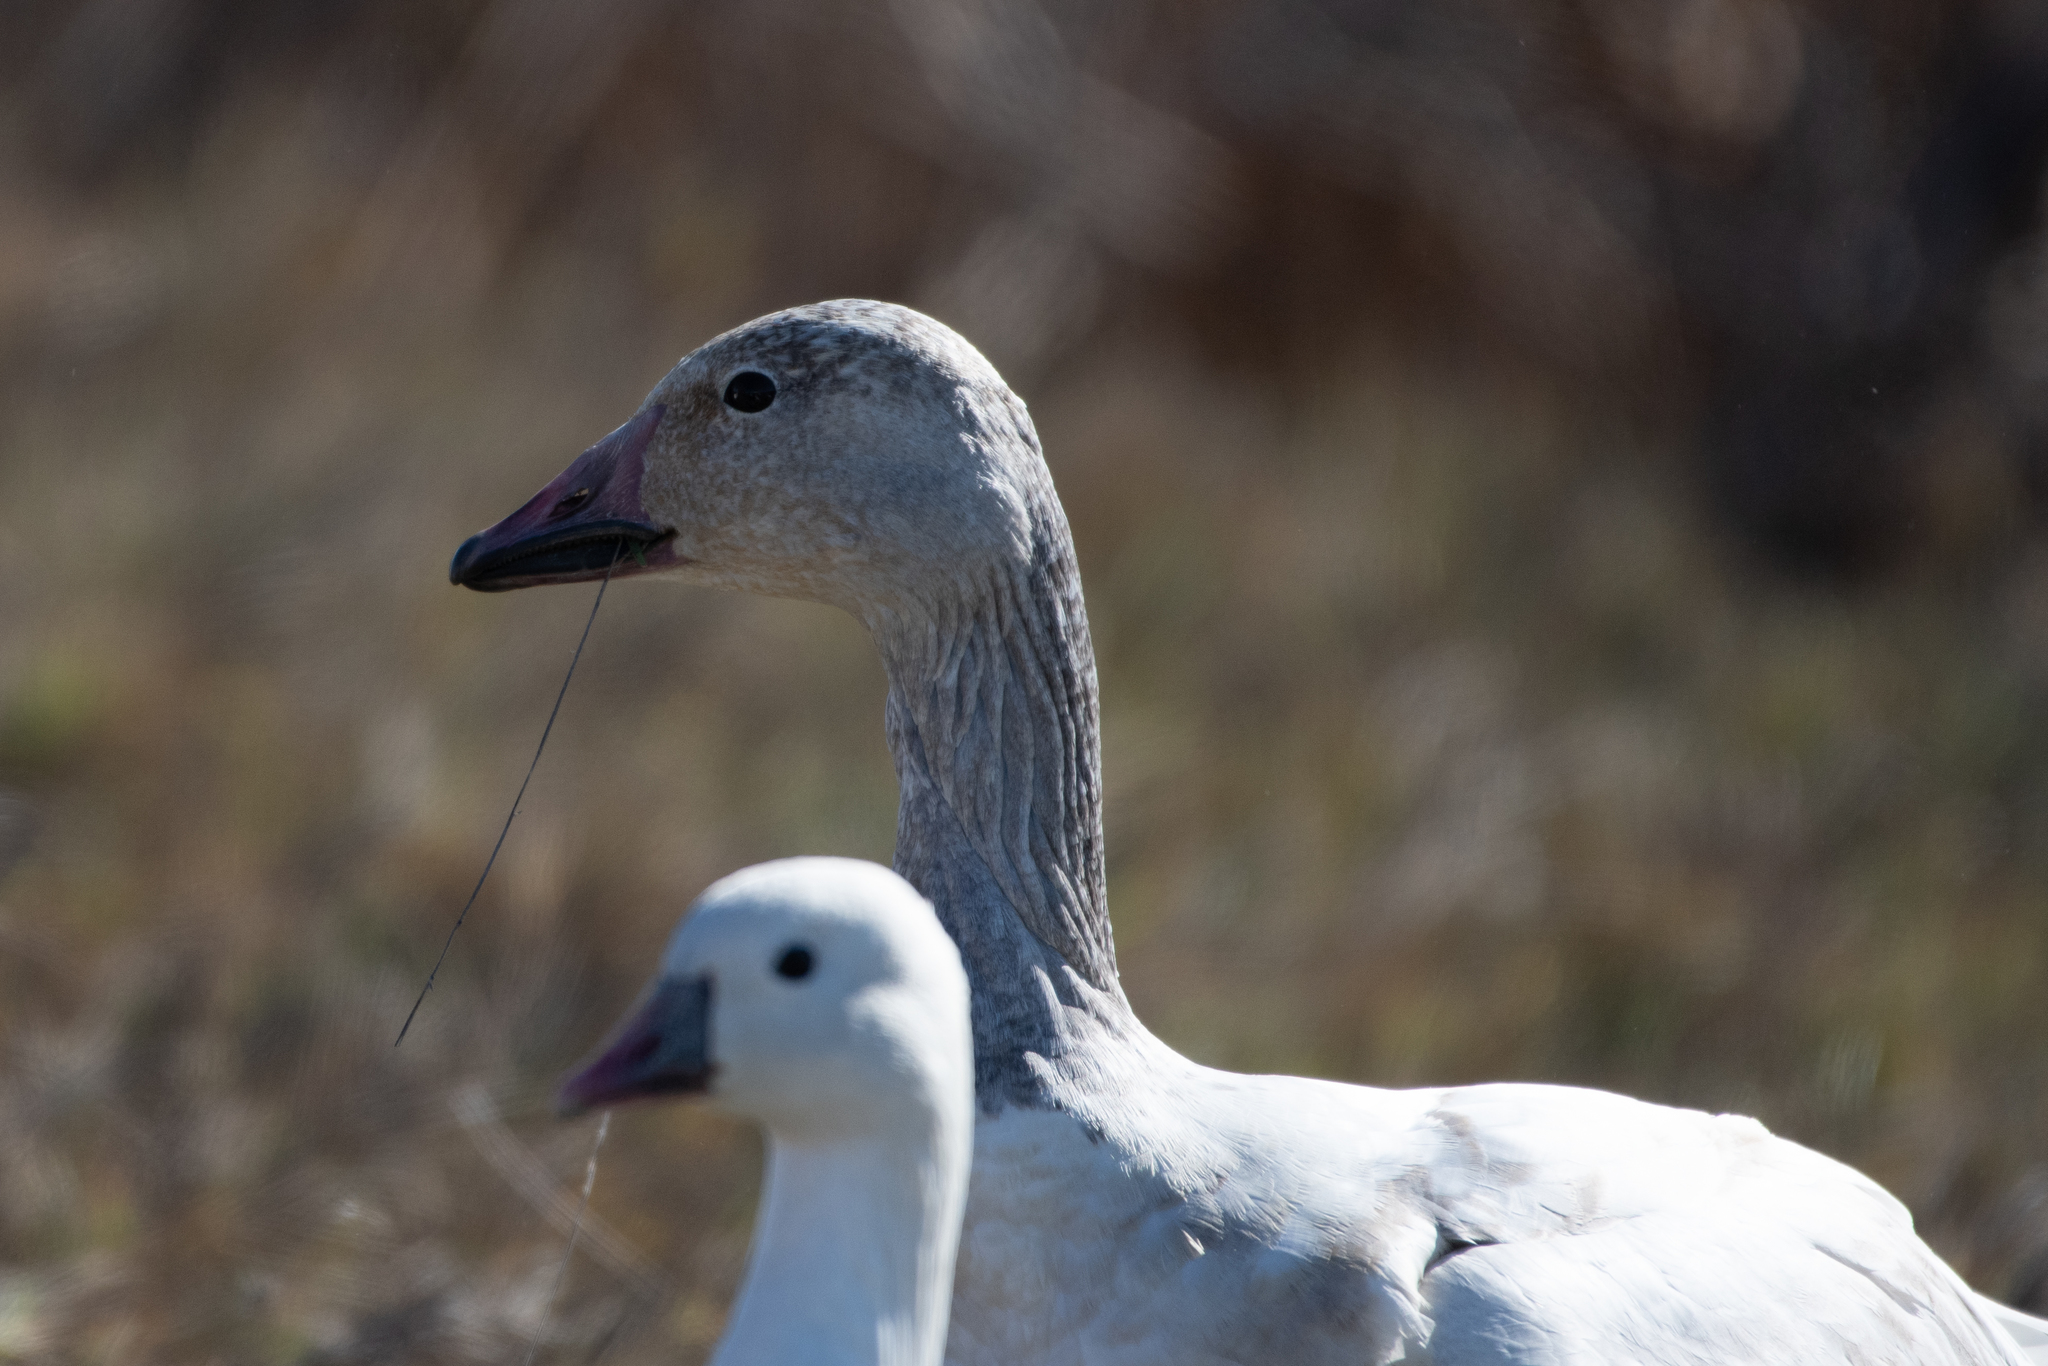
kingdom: Animalia
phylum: Chordata
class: Aves
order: Anseriformes
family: Anatidae
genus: Anser
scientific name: Anser caerulescens
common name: Snow goose
